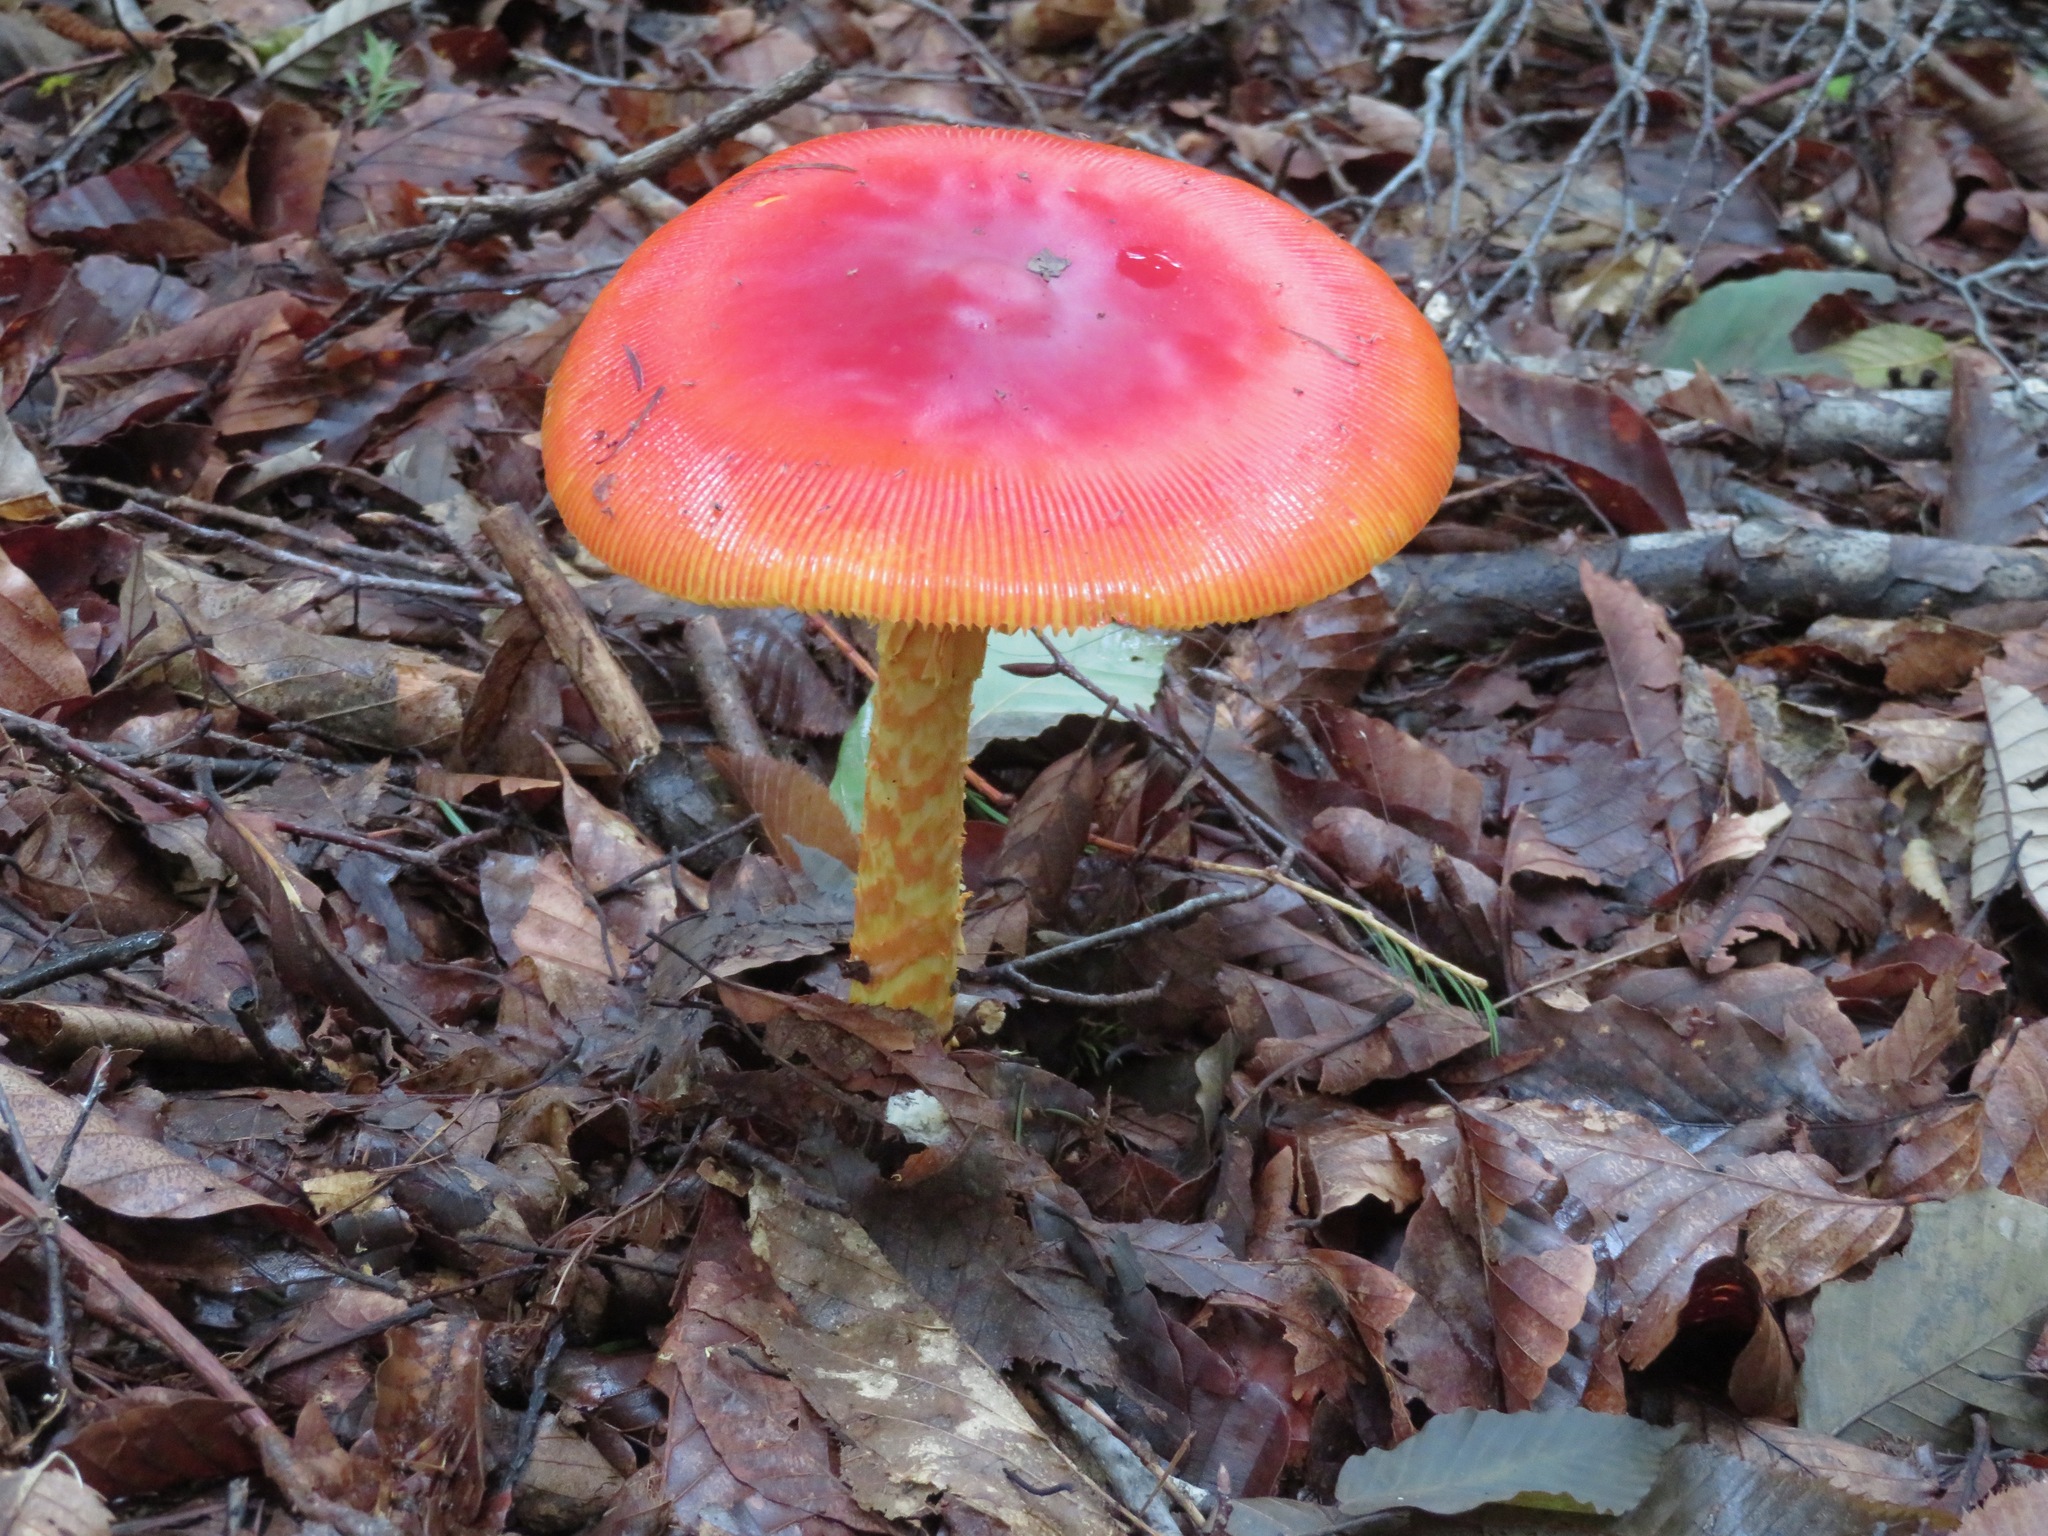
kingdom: Fungi
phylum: Basidiomycota
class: Agaricomycetes
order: Agaricales
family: Amanitaceae
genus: Amanita
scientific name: Amanita caesareoides
